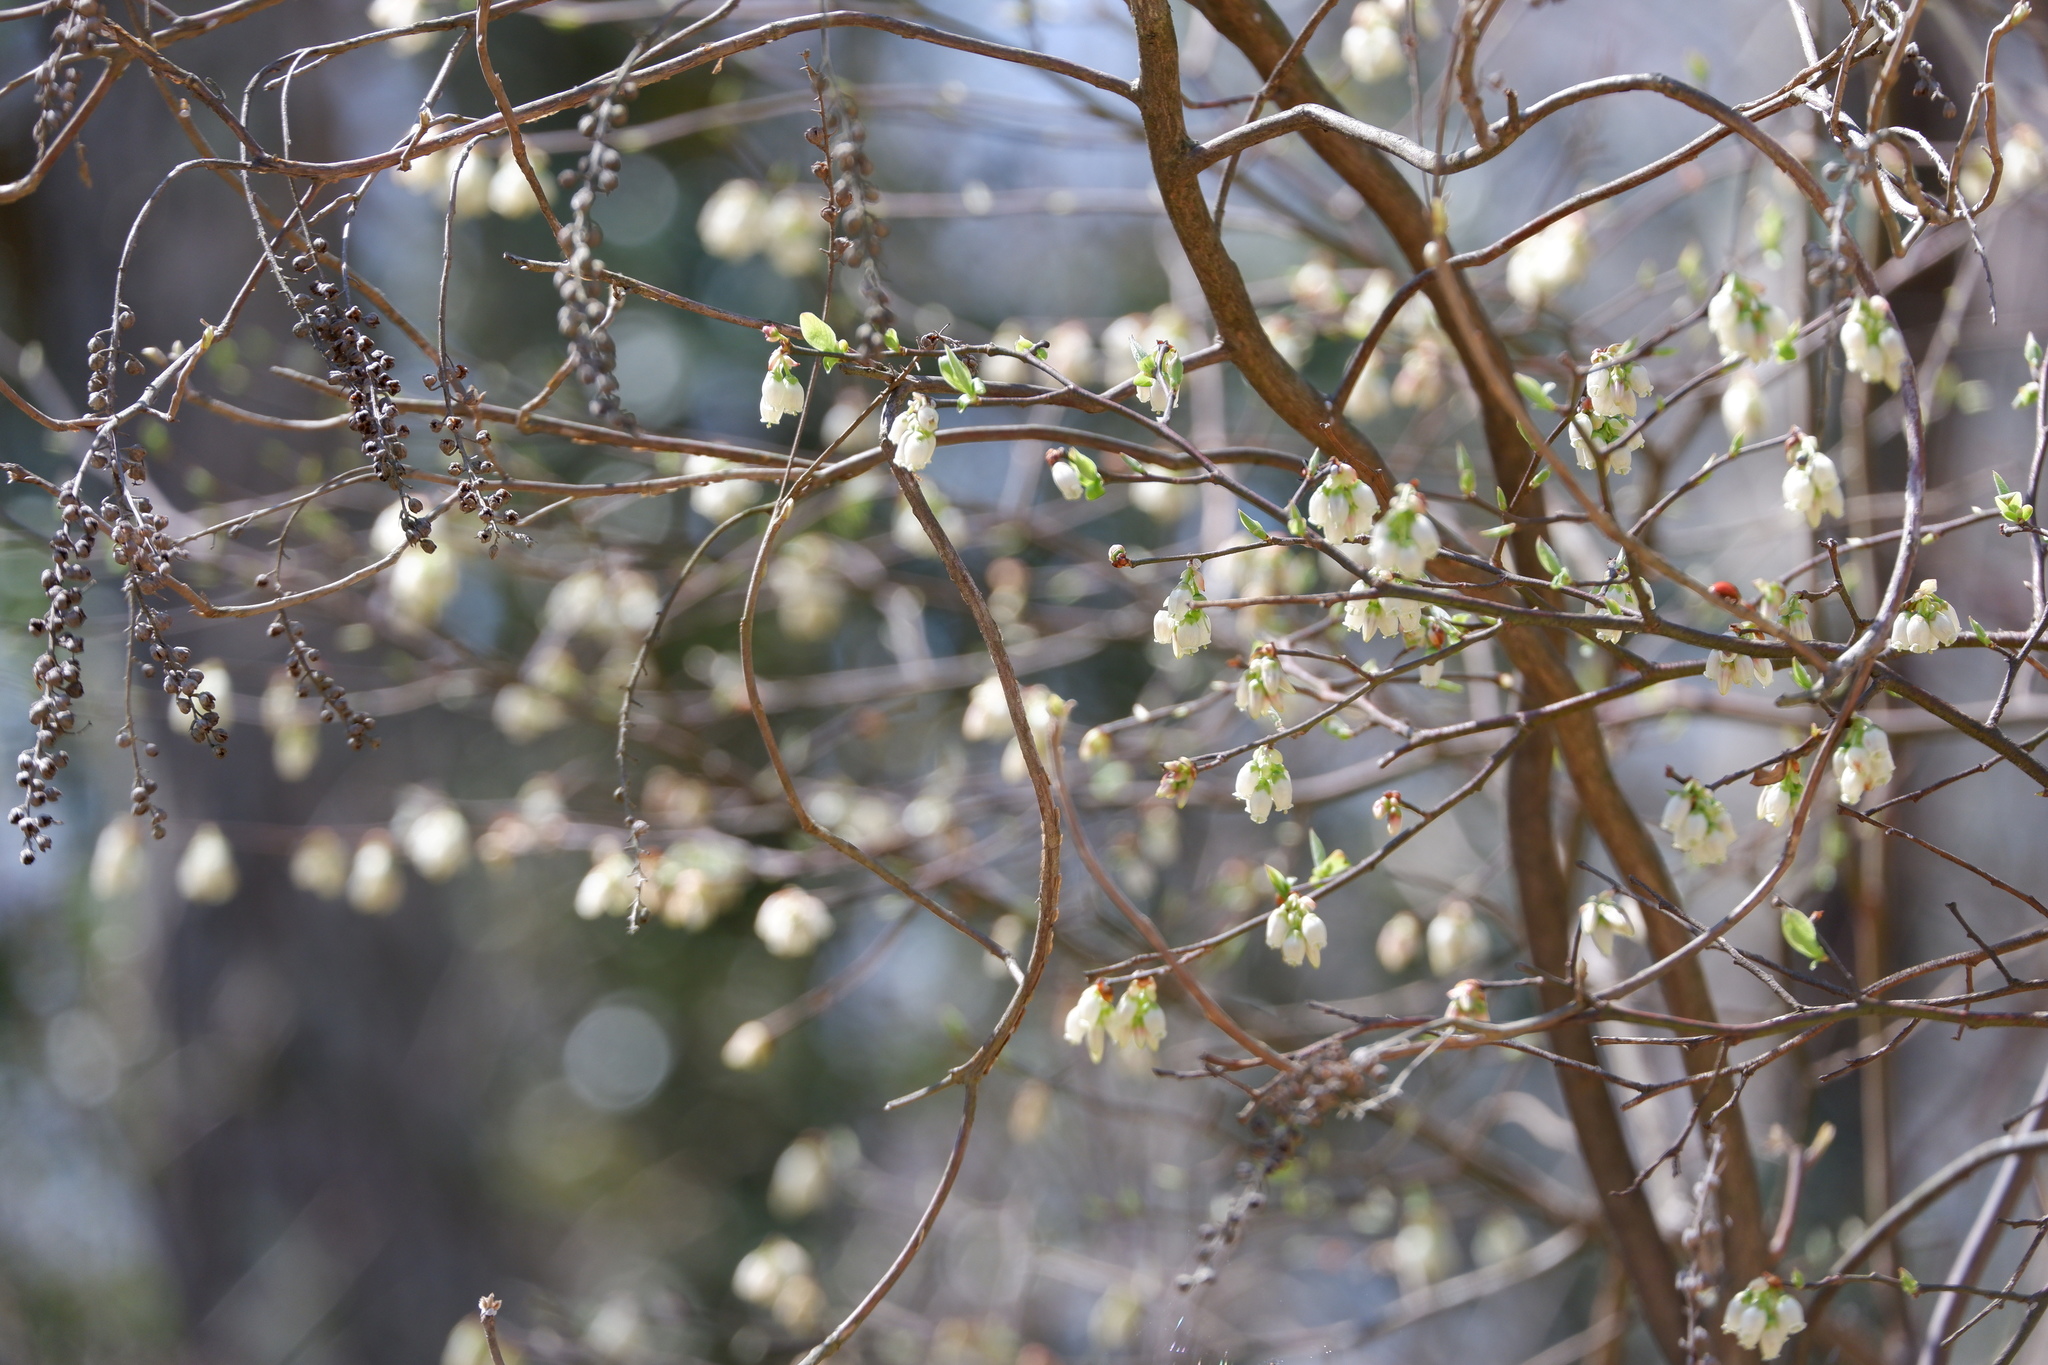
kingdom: Plantae
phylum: Tracheophyta
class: Magnoliopsida
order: Ericales
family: Ericaceae
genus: Vaccinium
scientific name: Vaccinium corymbosum
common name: Blueberry
